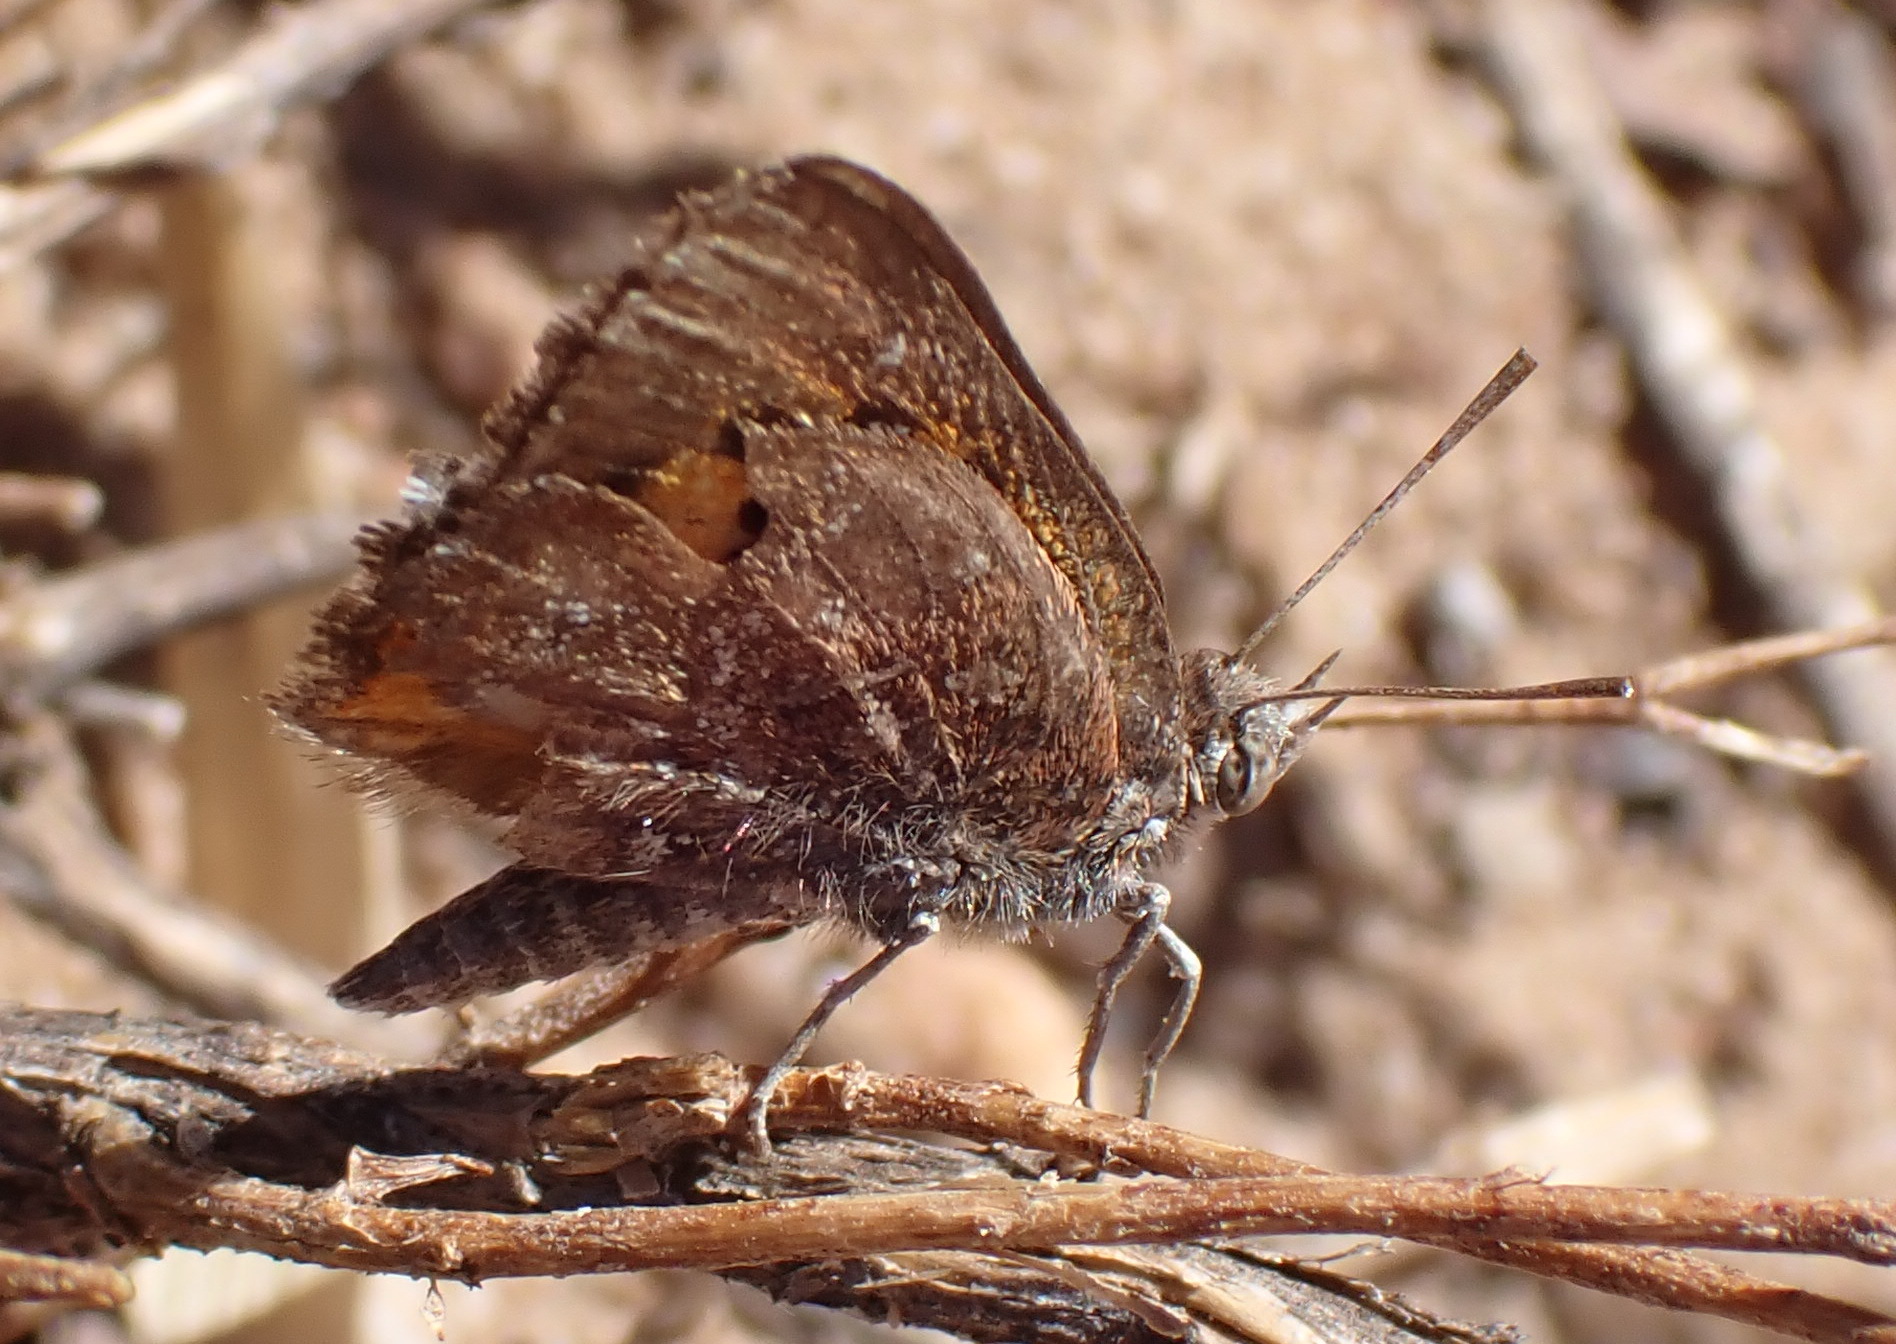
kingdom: Animalia
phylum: Arthropoda
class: Insecta
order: Lepidoptera
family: Lycaenidae
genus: Aloeides
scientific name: Aloeides
